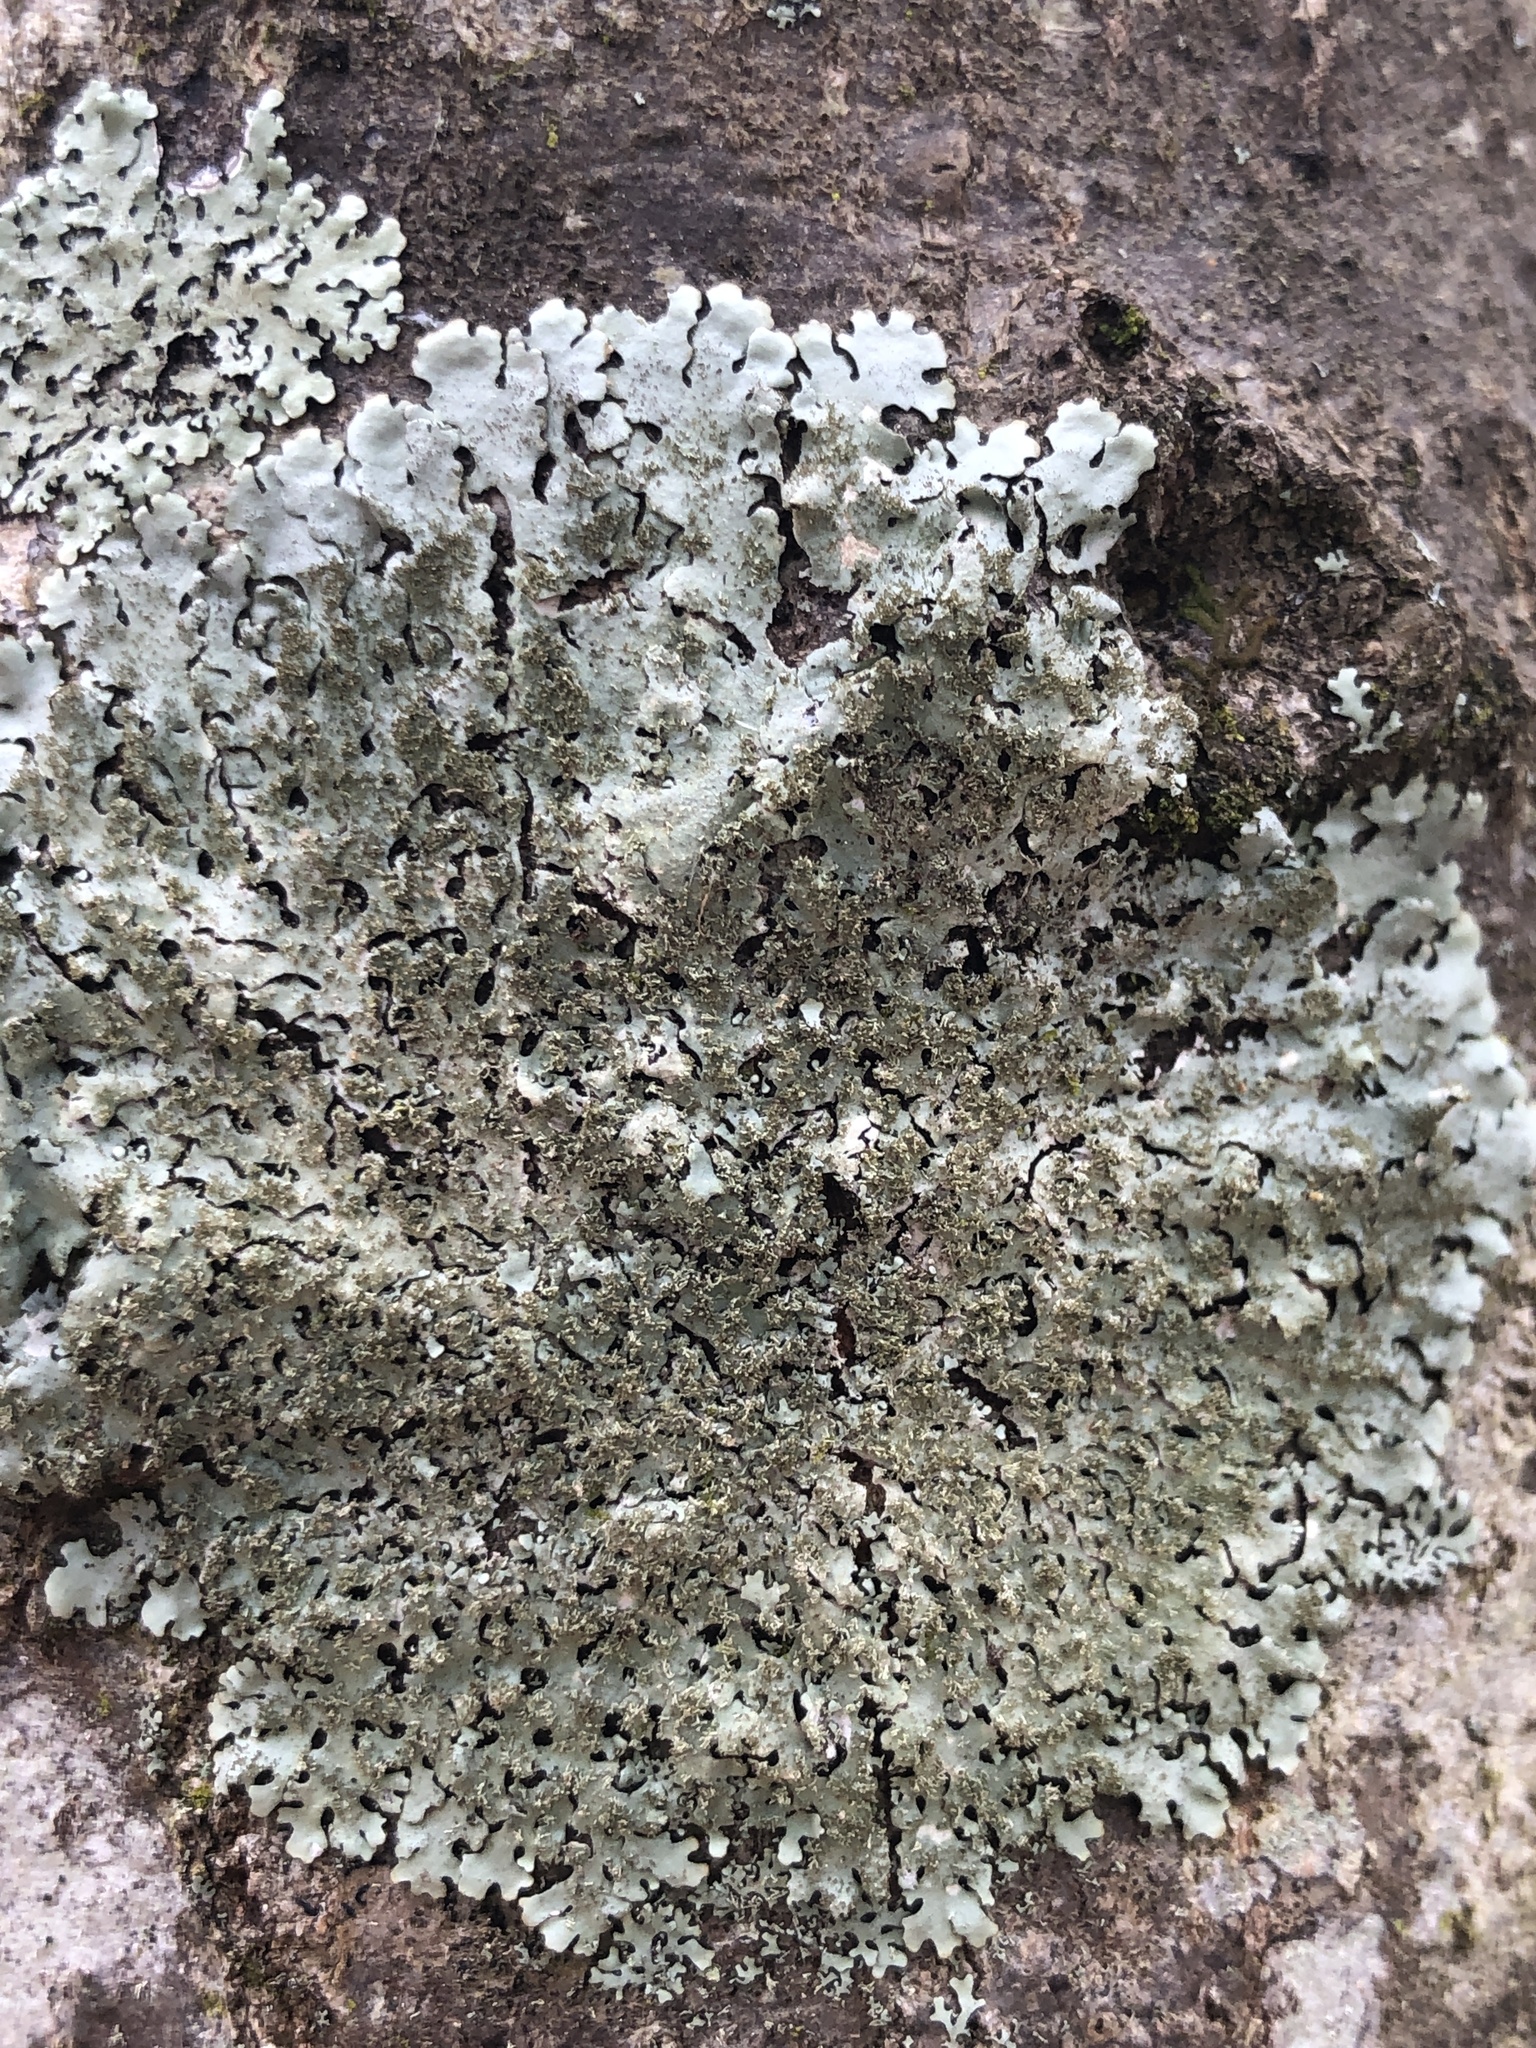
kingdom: Fungi
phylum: Ascomycota
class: Lecanoromycetes
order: Lecanorales
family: Parmeliaceae
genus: Hypotrachyna
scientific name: Hypotrachyna minarum
